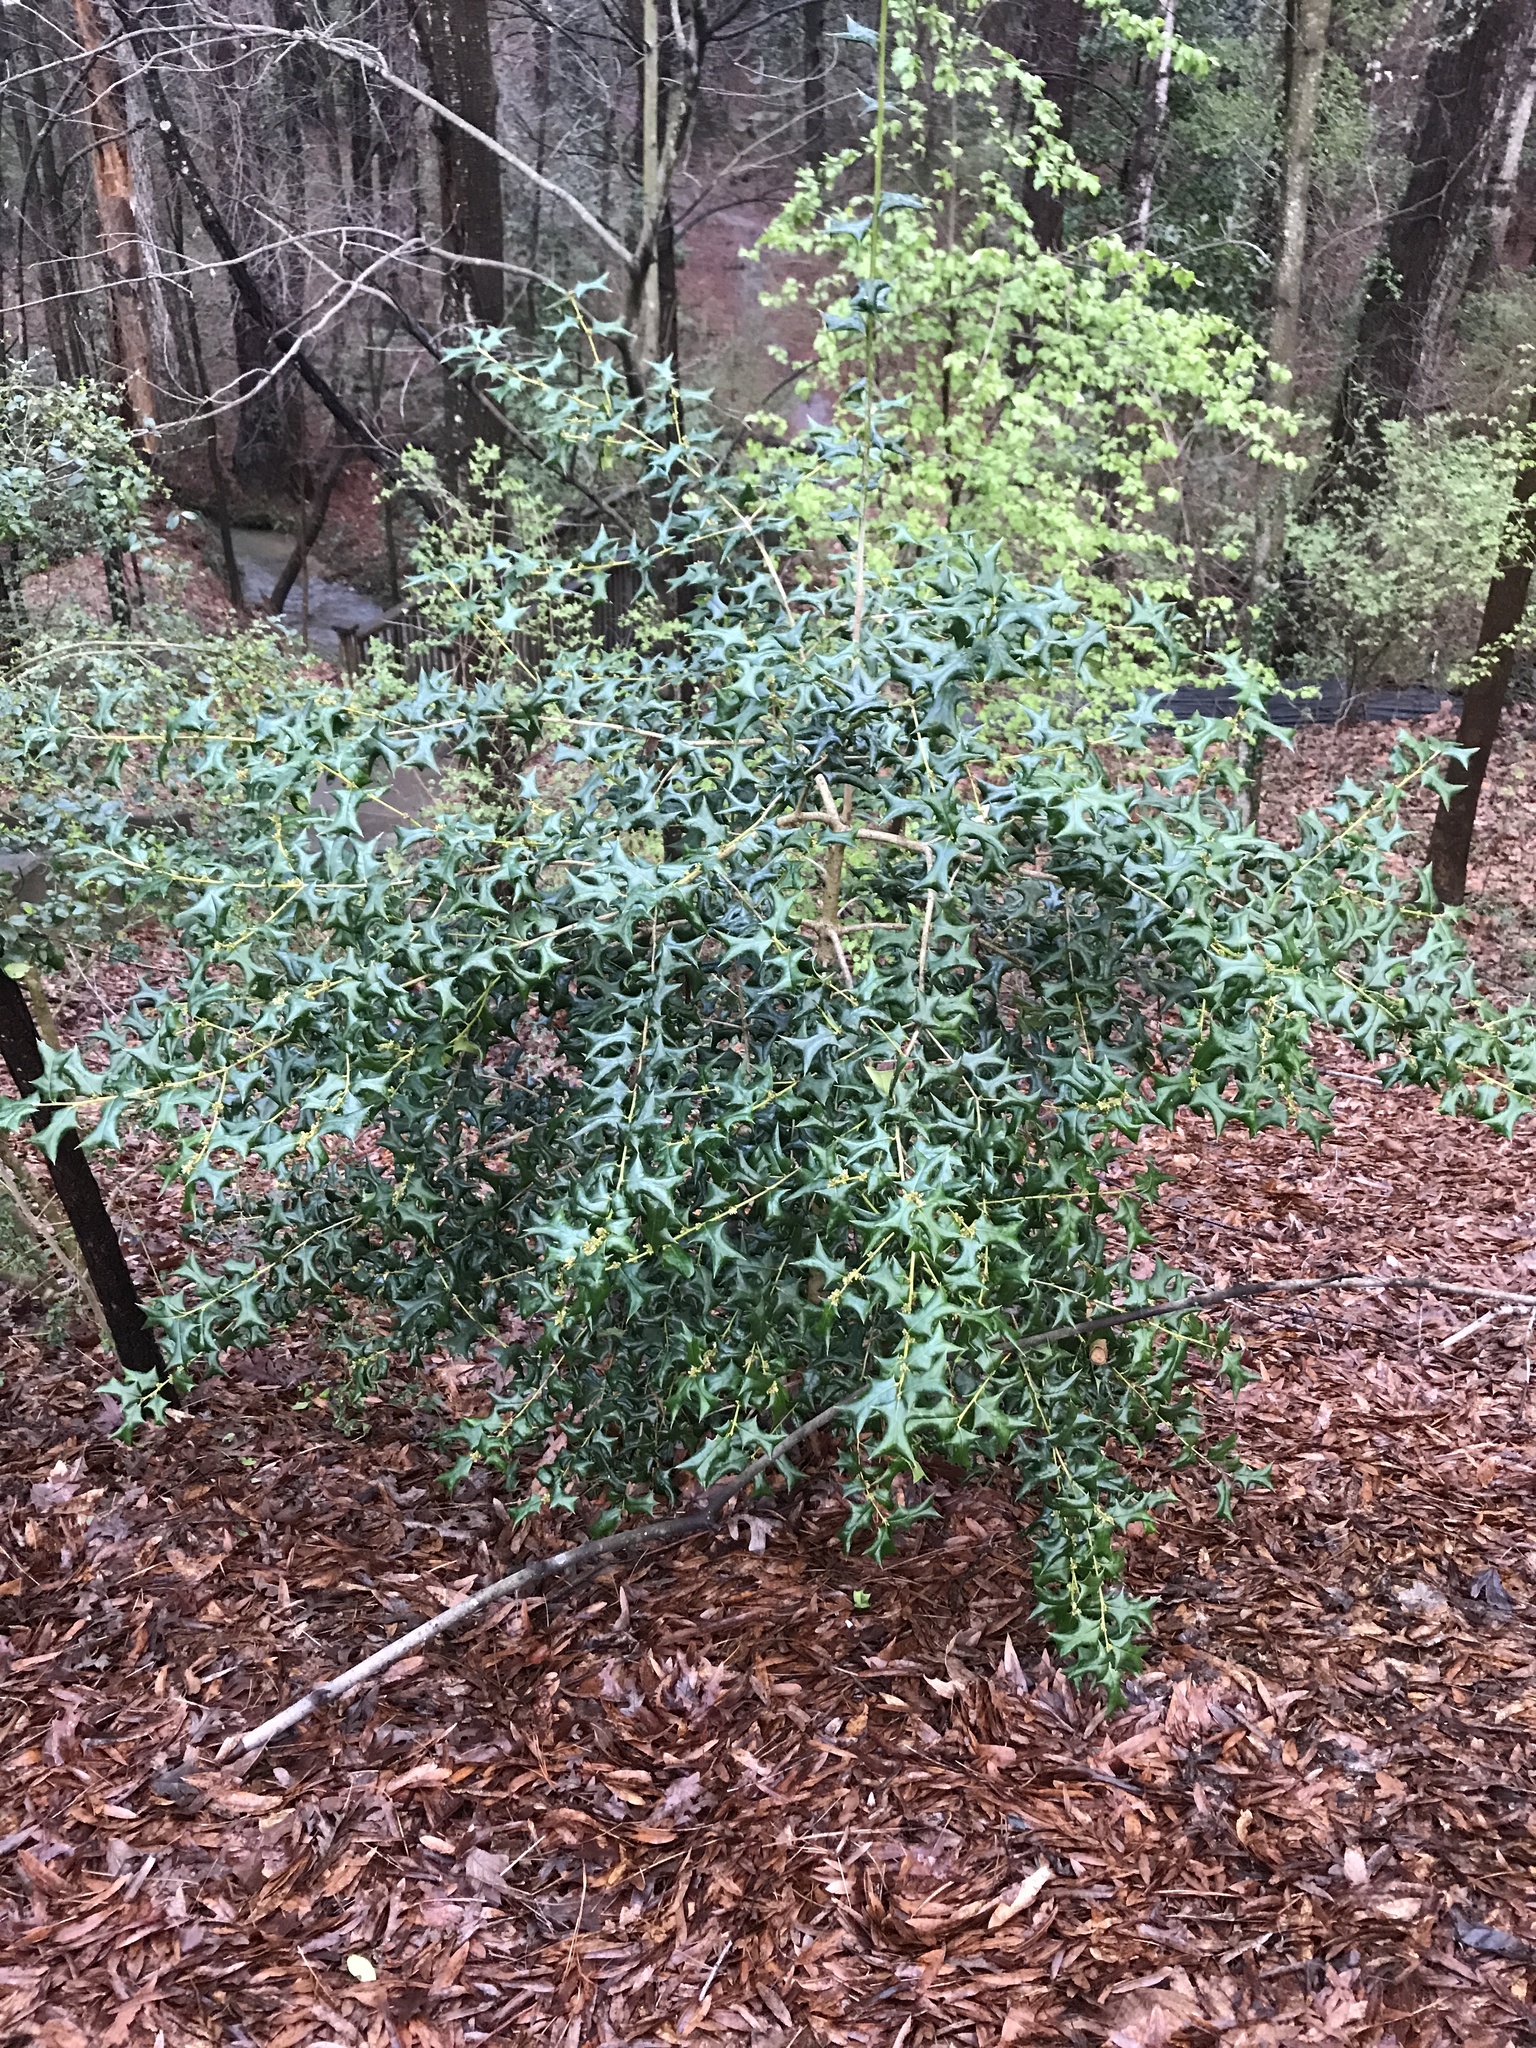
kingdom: Plantae
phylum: Tracheophyta
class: Magnoliopsida
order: Aquifoliales
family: Aquifoliaceae
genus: Ilex
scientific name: Ilex cornuta
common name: Chinese holly
